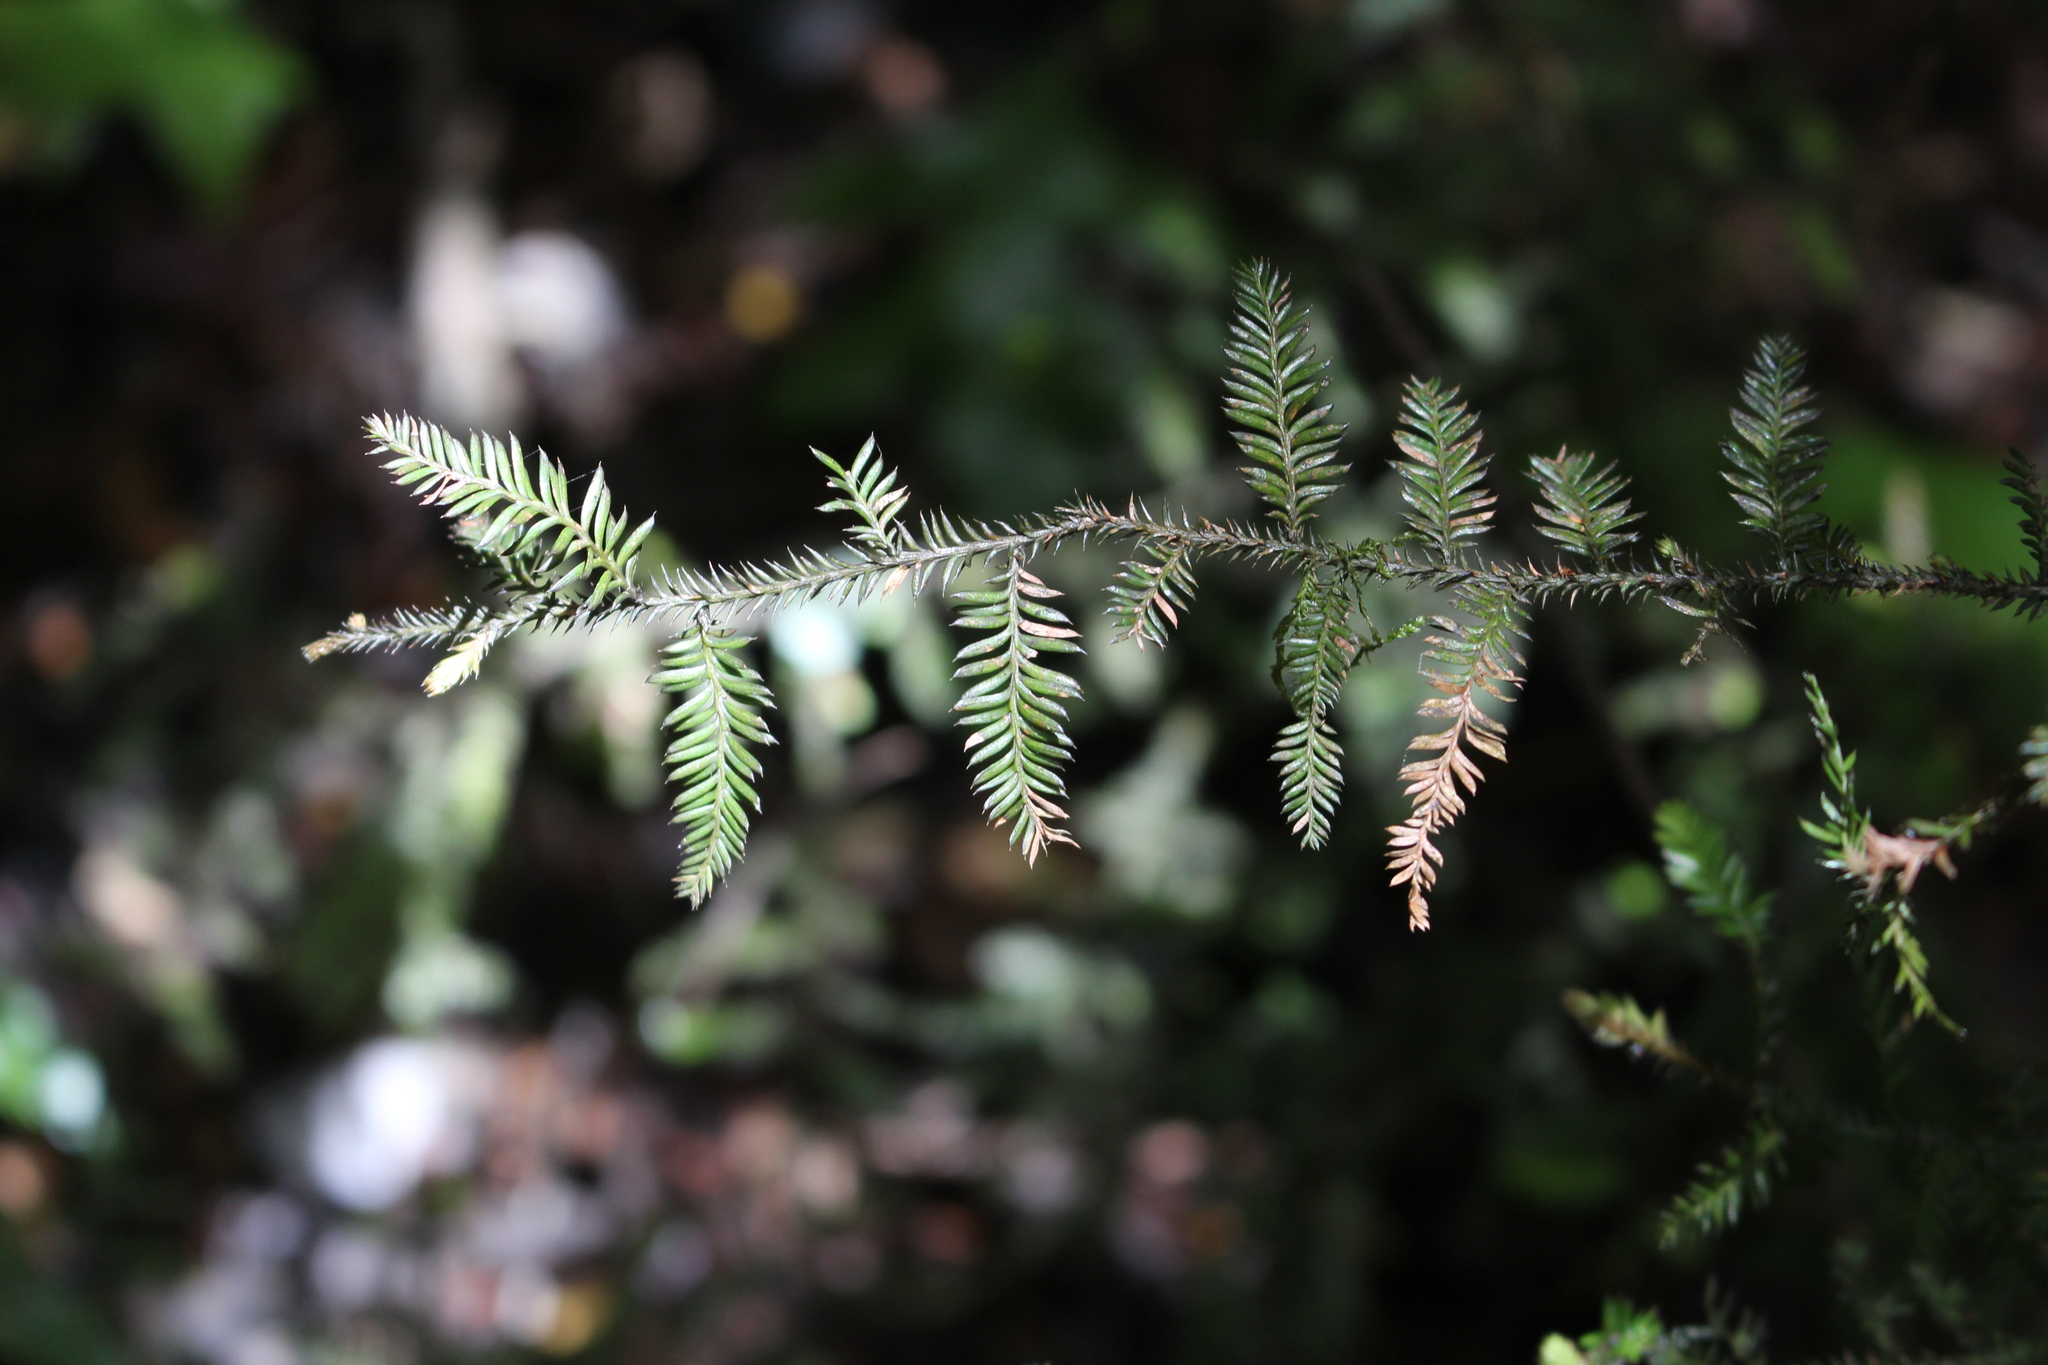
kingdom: Plantae
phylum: Tracheophyta
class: Pinopsida
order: Pinales
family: Podocarpaceae
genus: Dacrycarpus
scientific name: Dacrycarpus dacrydioides
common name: White pine
